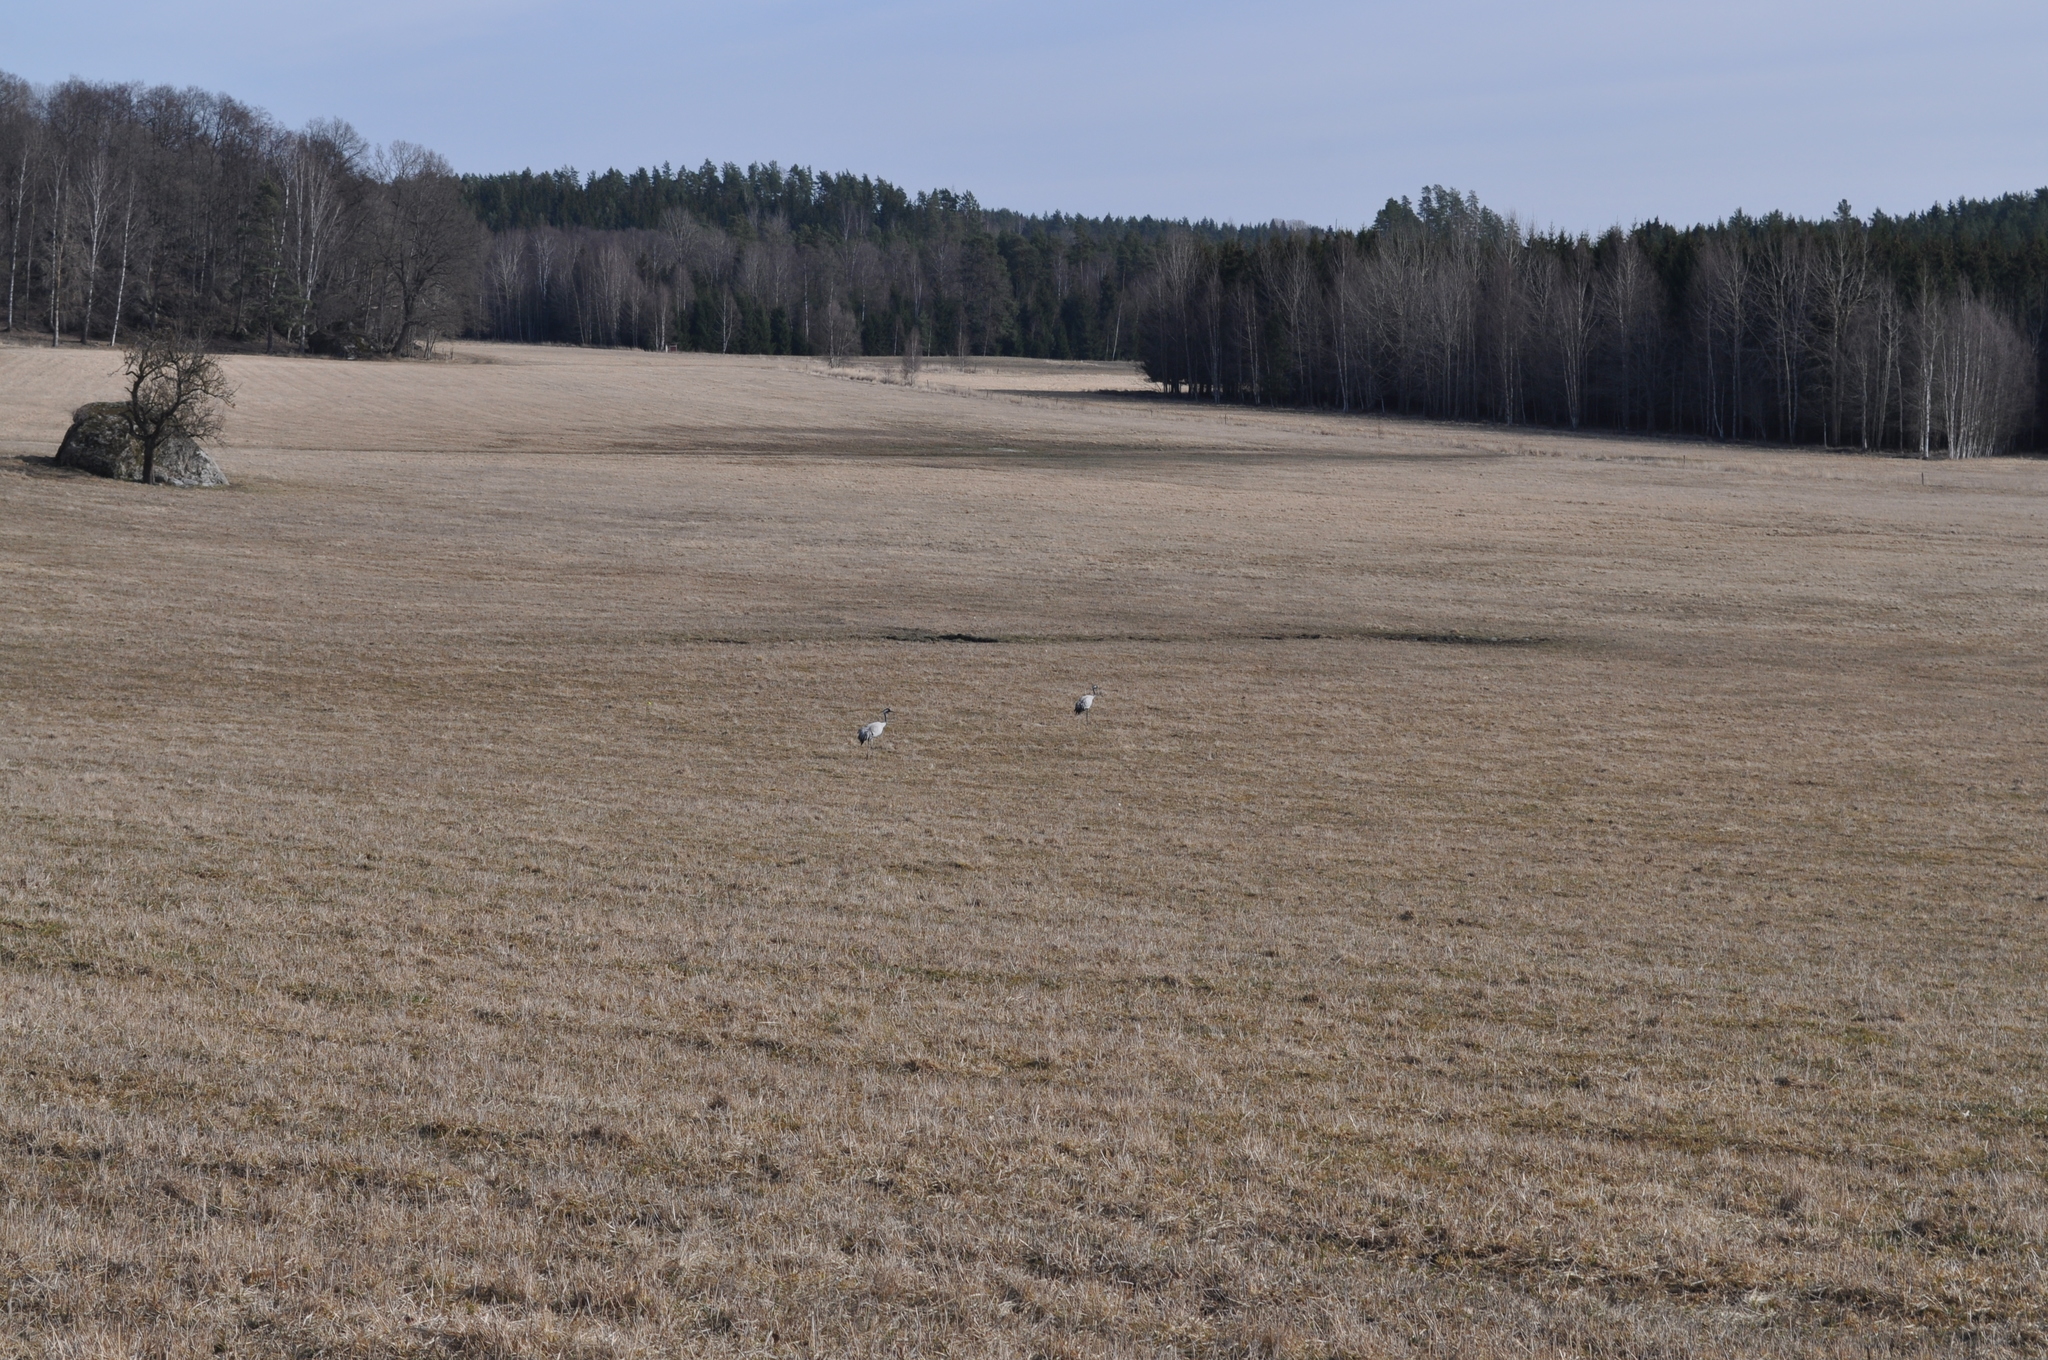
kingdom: Animalia
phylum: Chordata
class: Aves
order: Gruiformes
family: Gruidae
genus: Grus
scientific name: Grus grus
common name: Common crane
